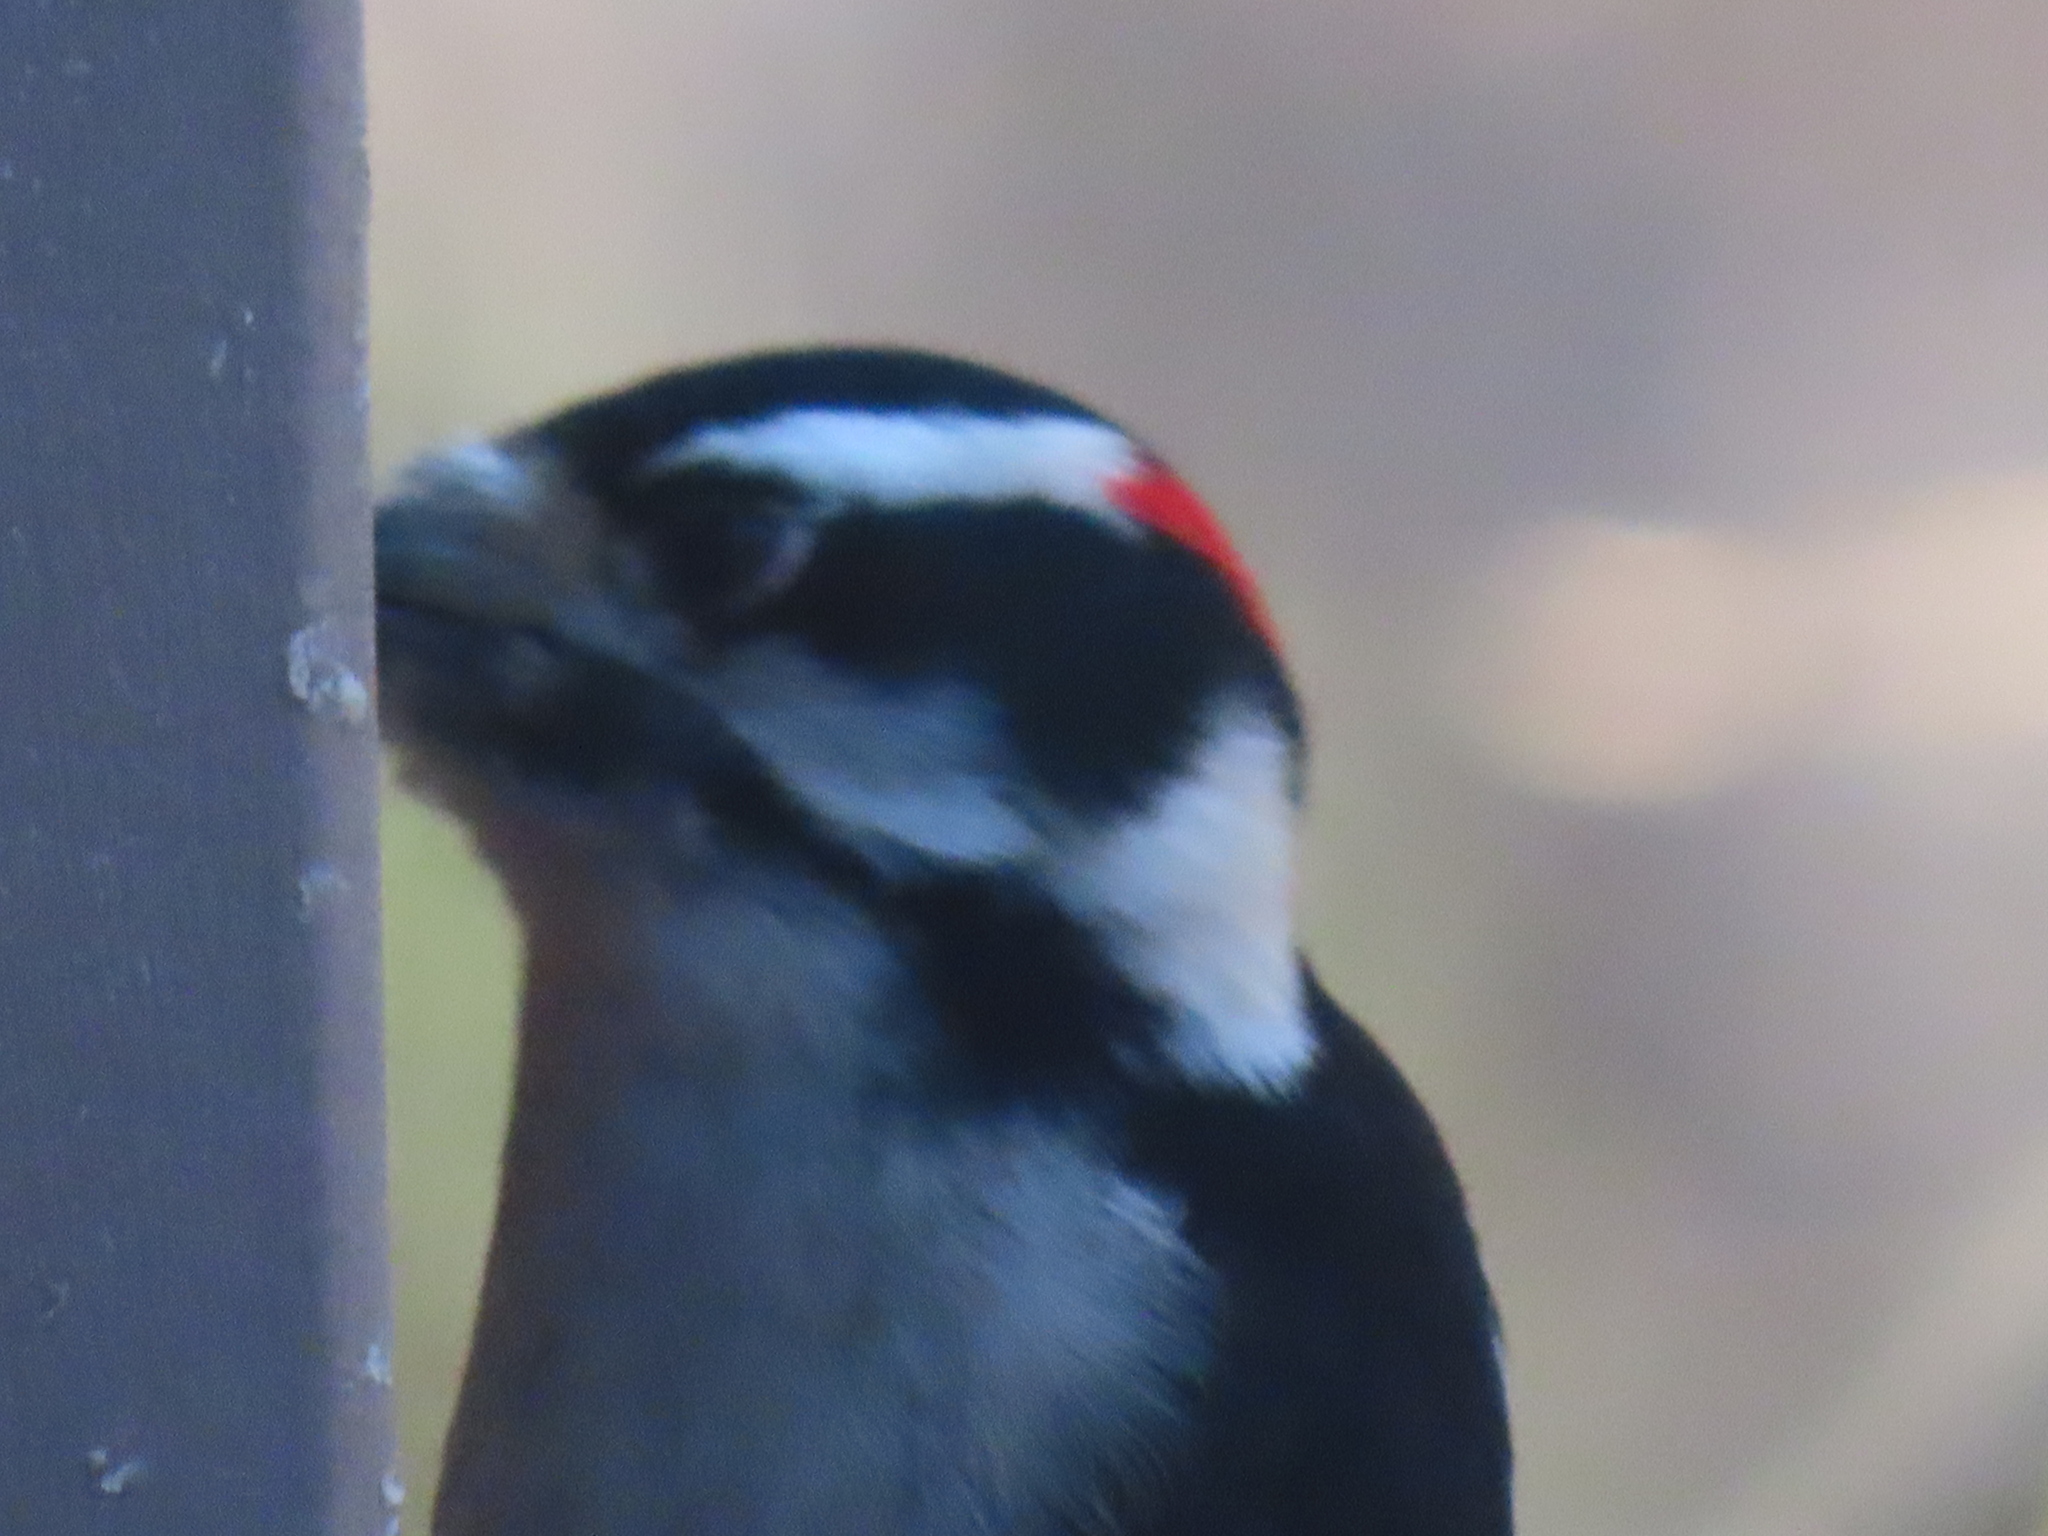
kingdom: Animalia
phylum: Chordata
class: Aves
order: Piciformes
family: Picidae
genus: Dryobates
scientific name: Dryobates pubescens
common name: Downy woodpecker
